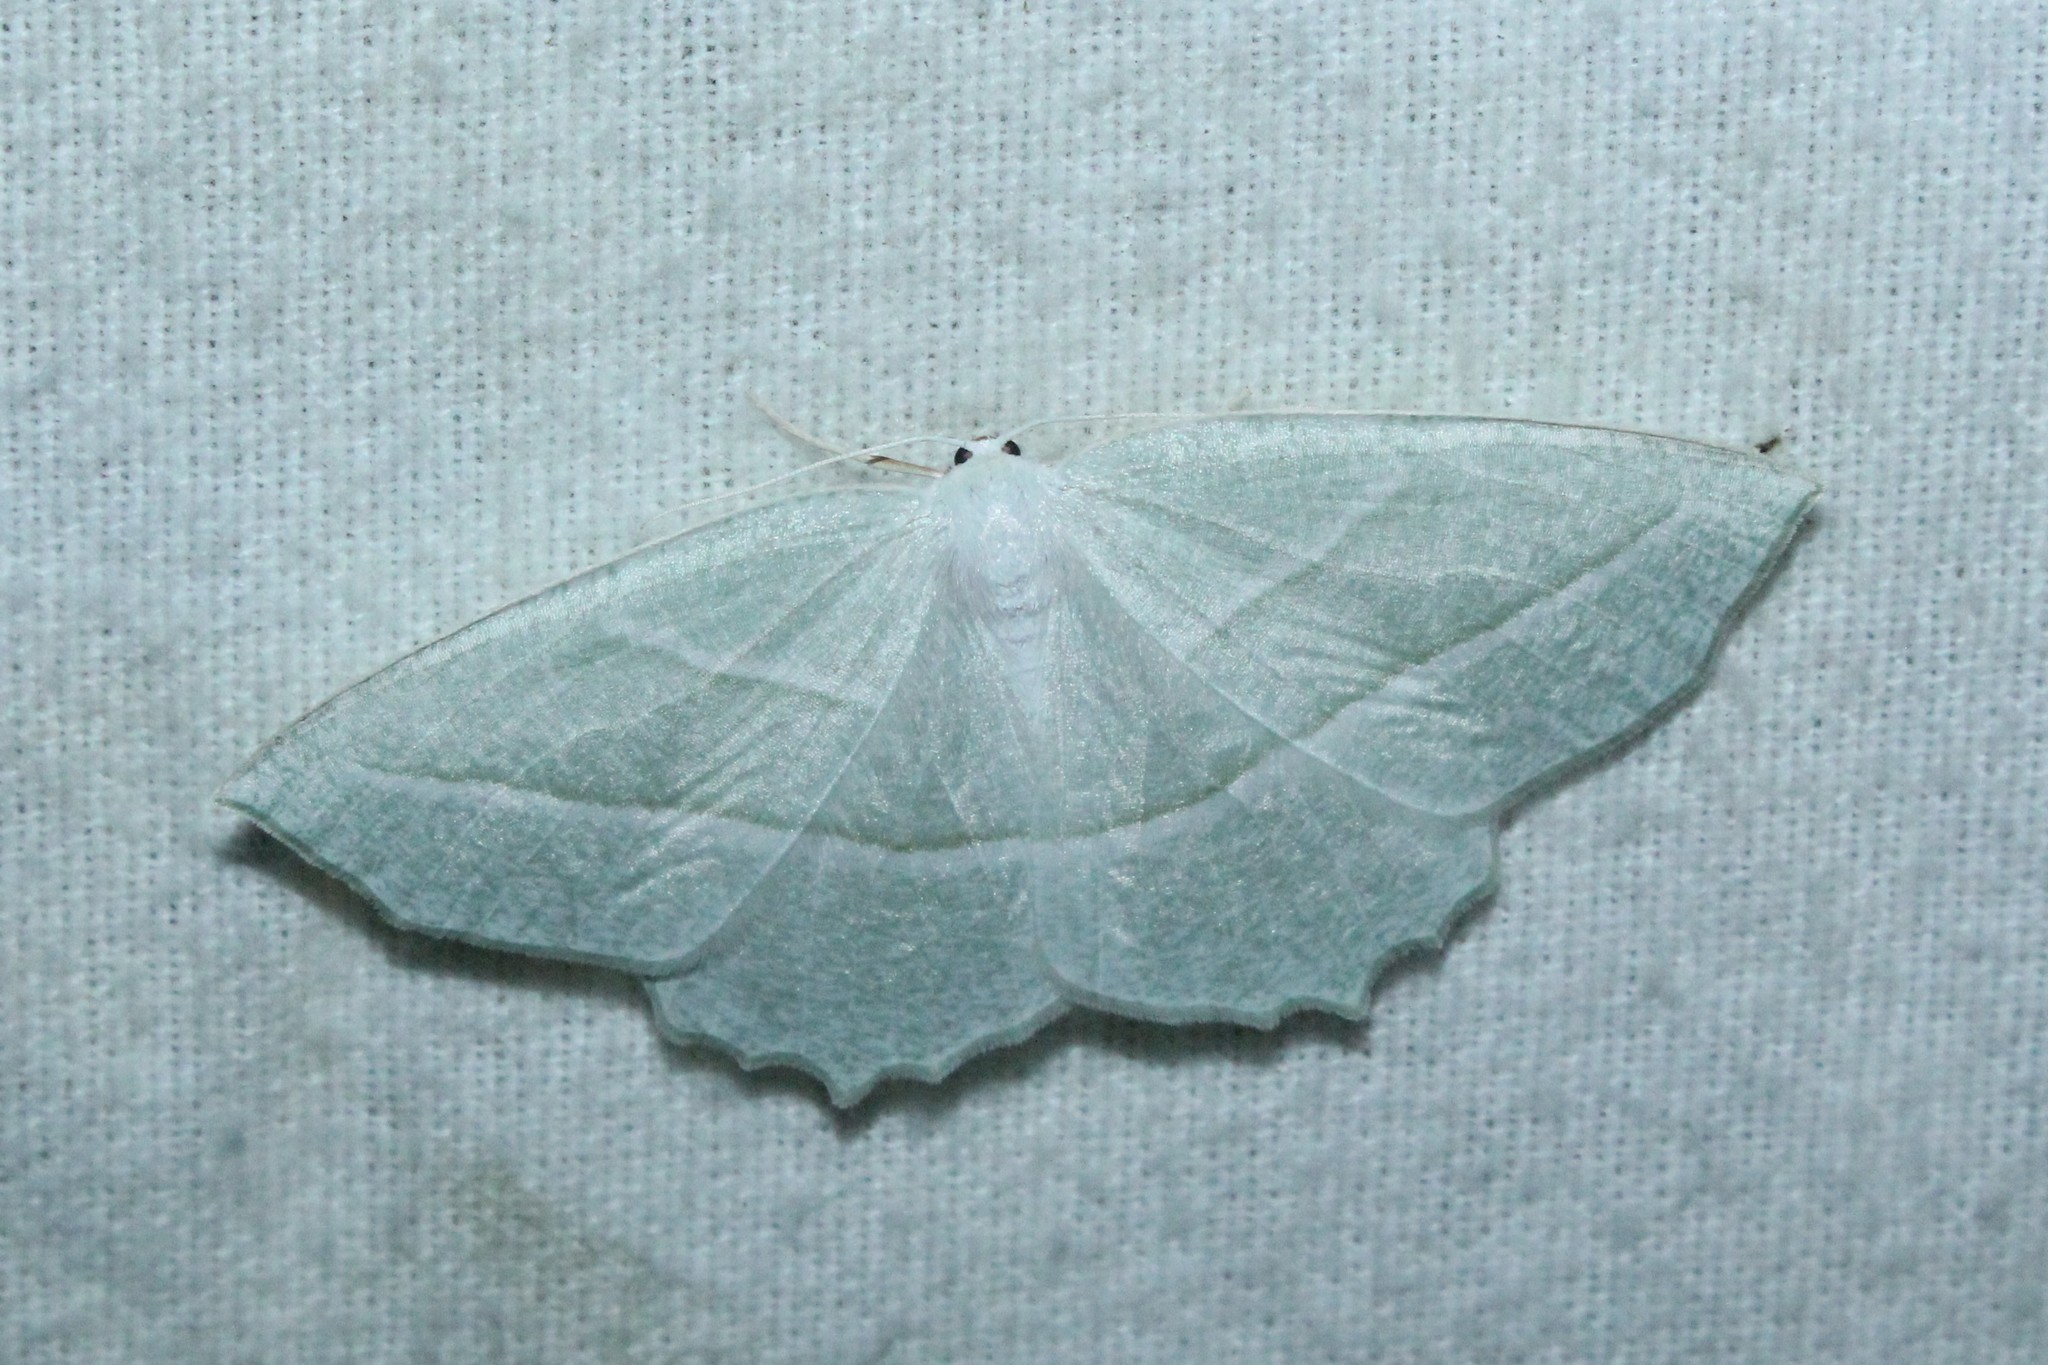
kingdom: Animalia
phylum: Arthropoda
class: Insecta
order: Lepidoptera
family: Geometridae
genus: Campaea
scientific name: Campaea perlata
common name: Fringed looper
